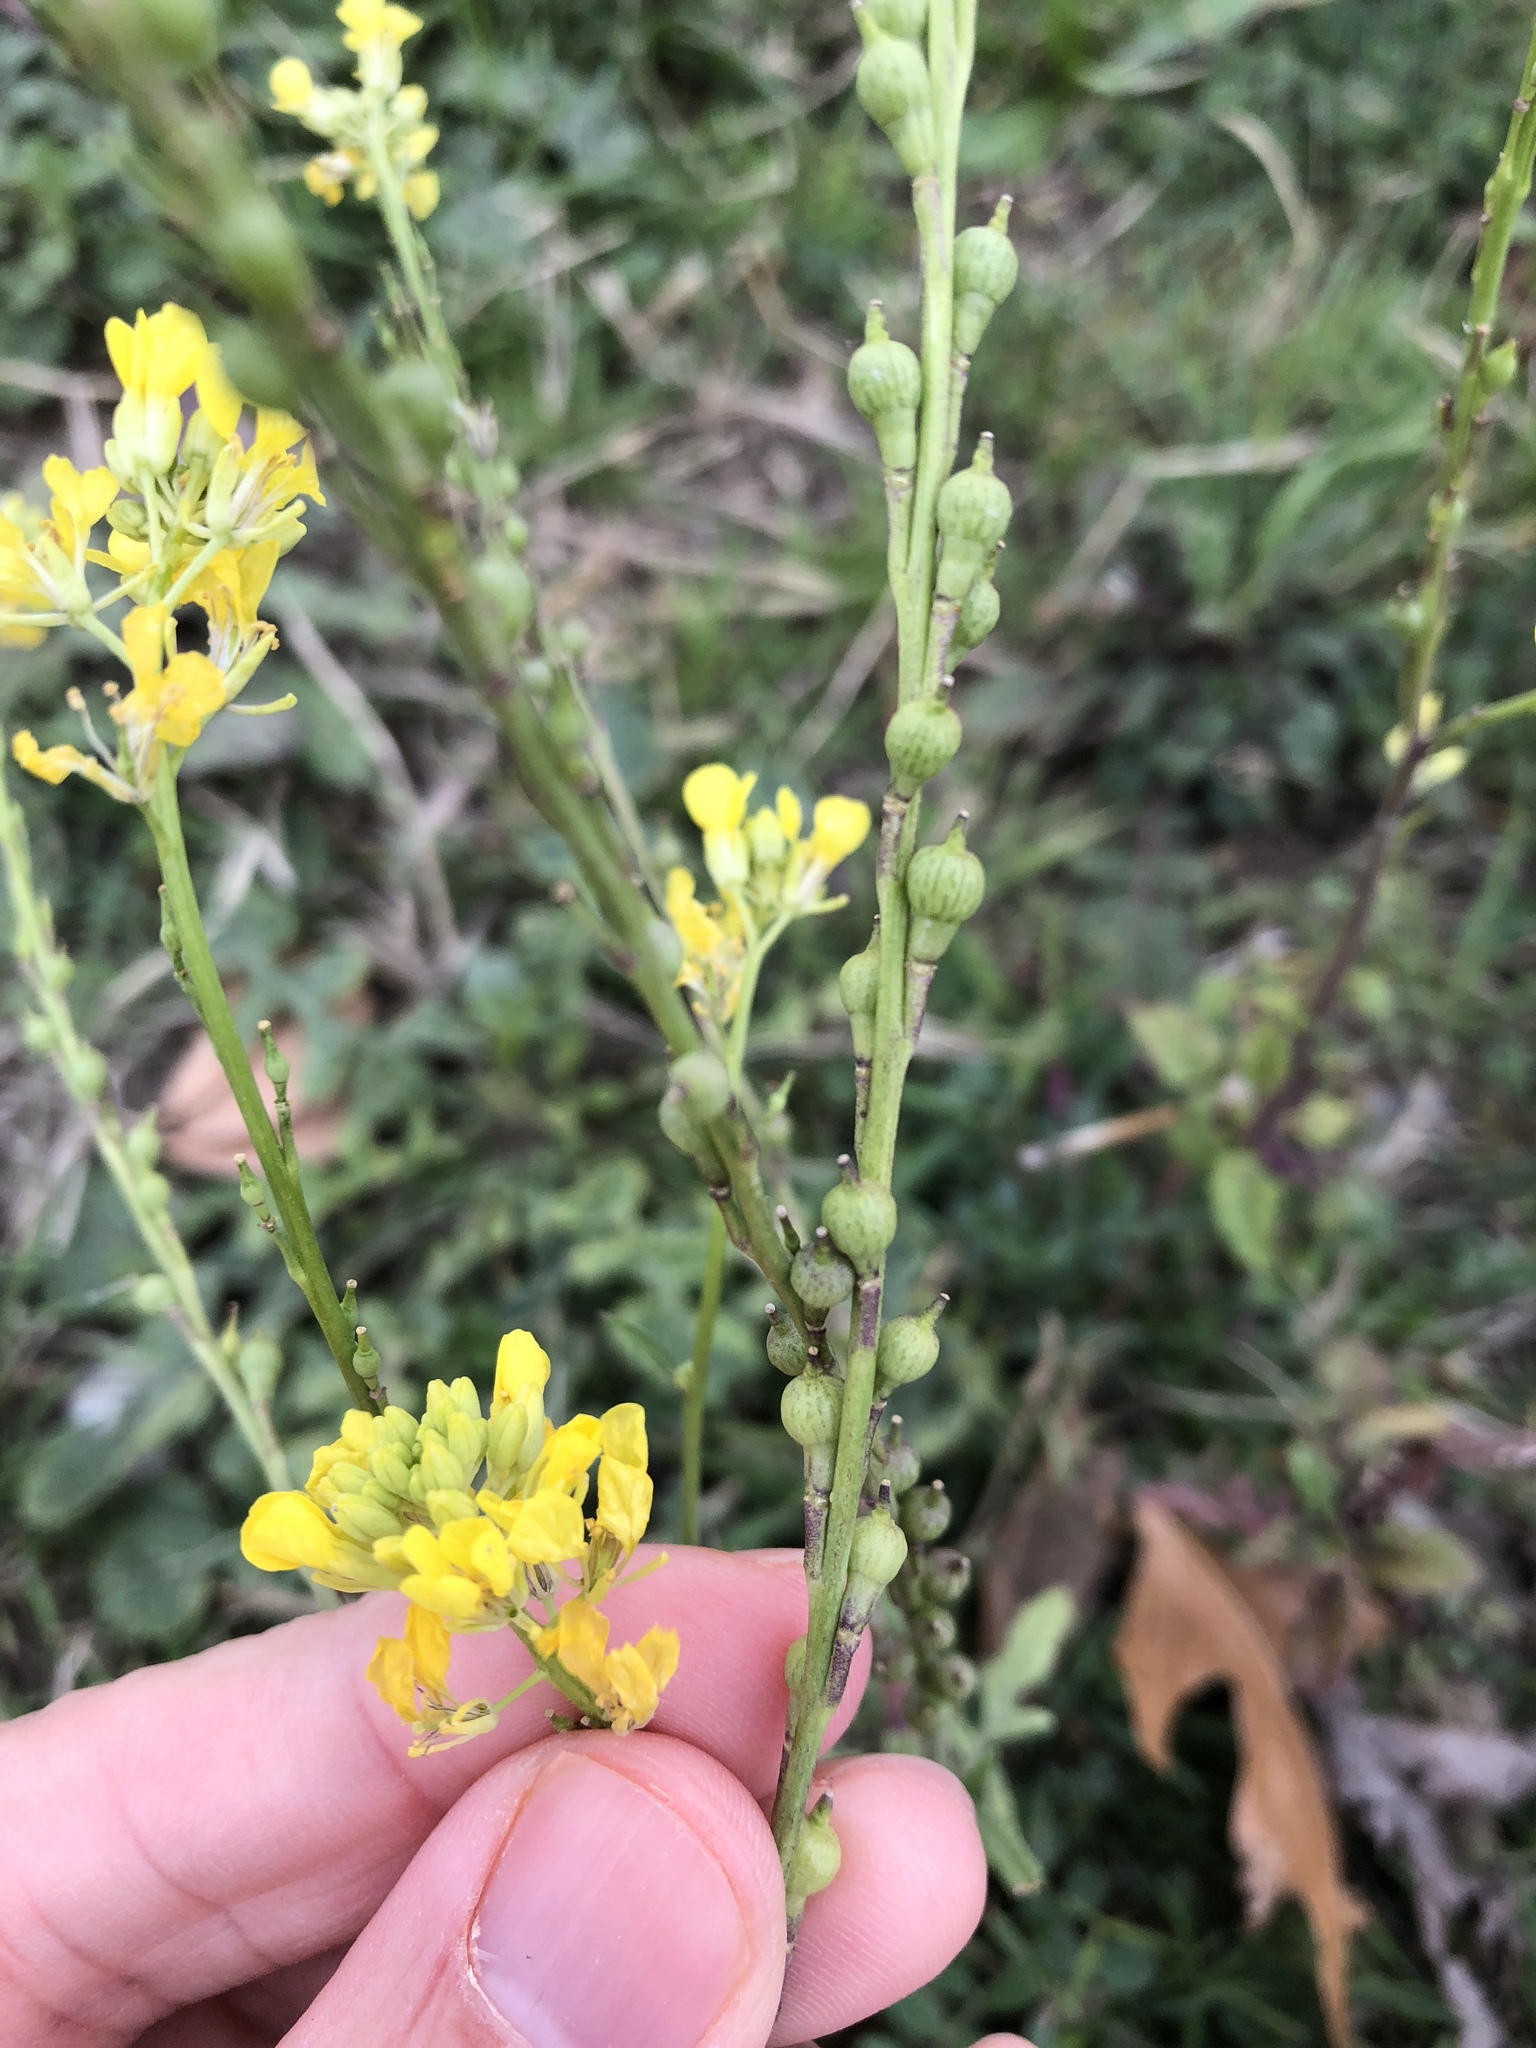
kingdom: Plantae
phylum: Tracheophyta
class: Magnoliopsida
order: Brassicales
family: Brassicaceae
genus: Rapistrum
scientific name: Rapistrum rugosum
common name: Annual bastardcabbage
